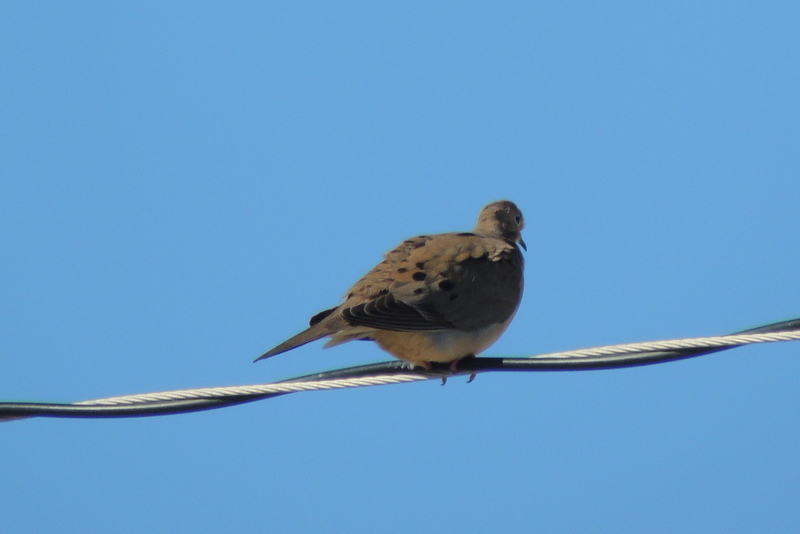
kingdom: Animalia
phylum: Chordata
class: Aves
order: Columbiformes
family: Columbidae
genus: Zenaida
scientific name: Zenaida macroura
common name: Mourning dove
